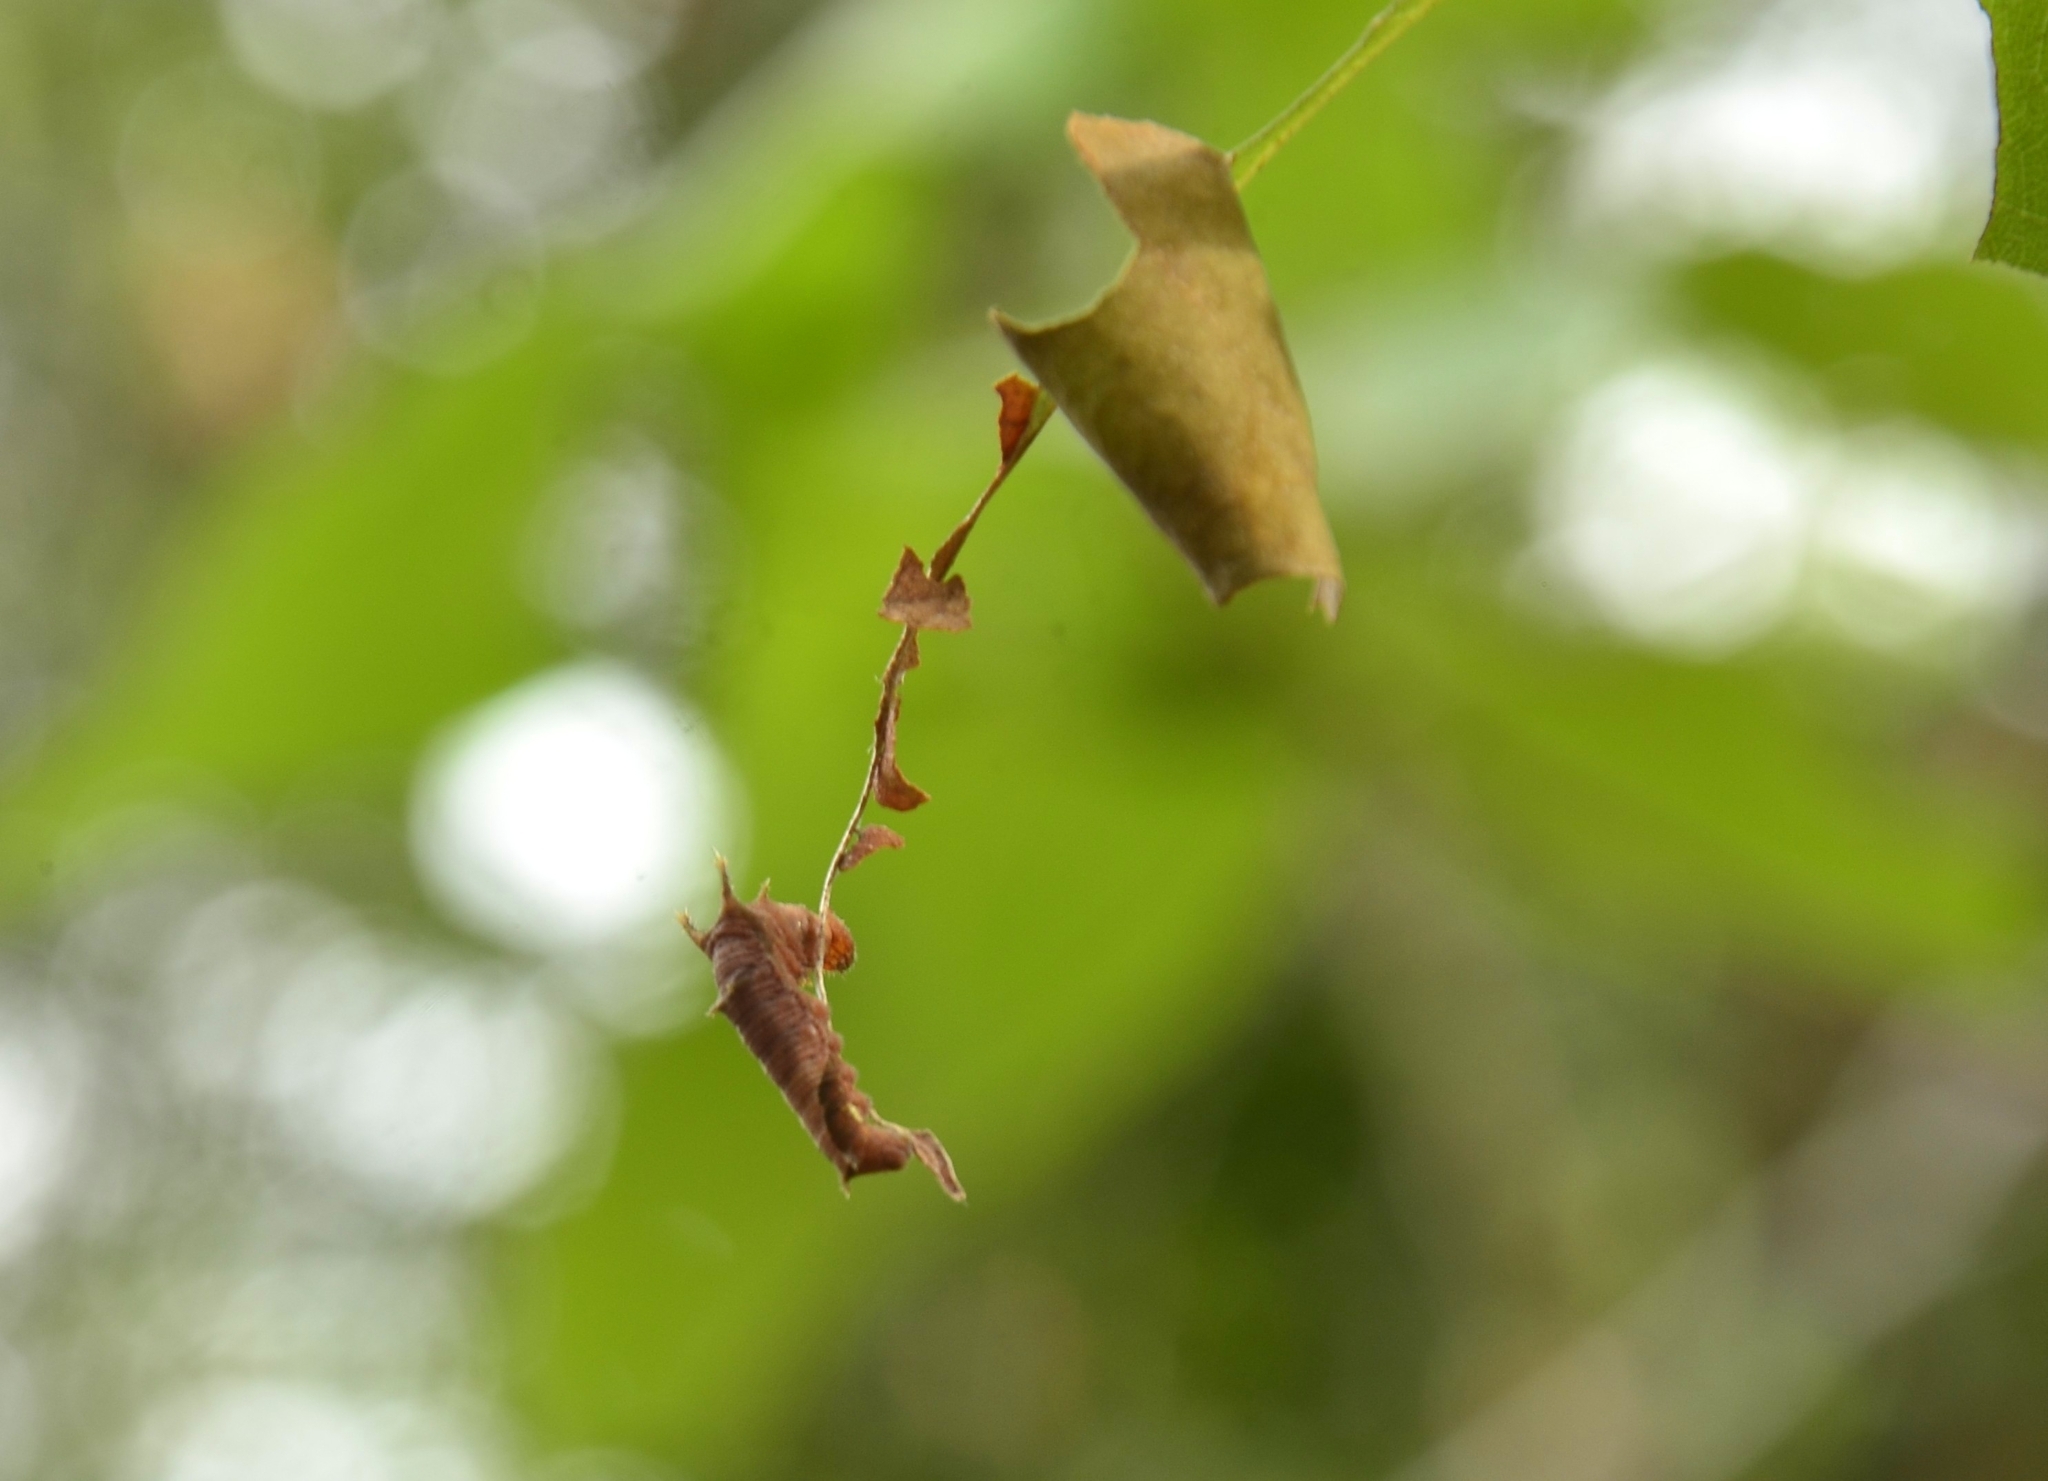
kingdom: Animalia
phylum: Arthropoda
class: Insecta
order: Lepidoptera
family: Nymphalidae
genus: Neptis
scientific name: Neptis jumbah
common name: Chestnut-streaked sailer
